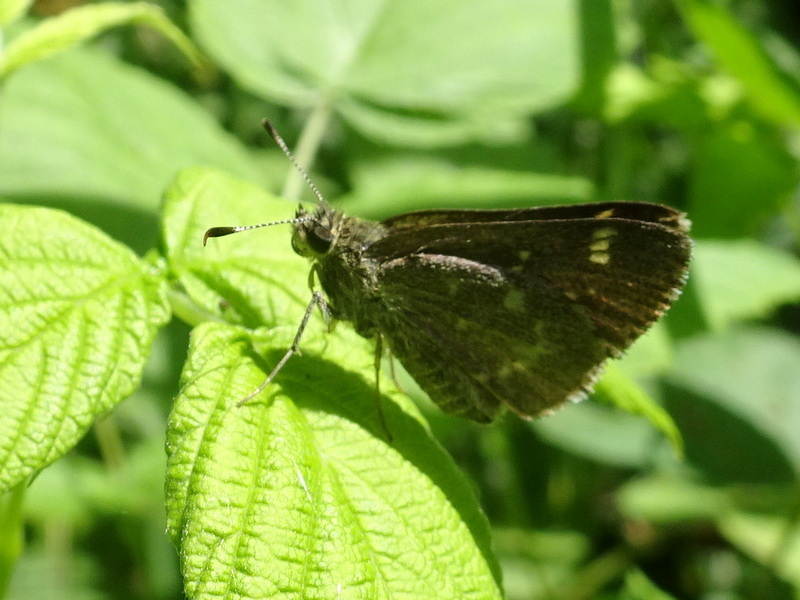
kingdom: Animalia
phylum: Arthropoda
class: Insecta
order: Lepidoptera
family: Hesperiidae
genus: Mastor
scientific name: Mastor hegon
